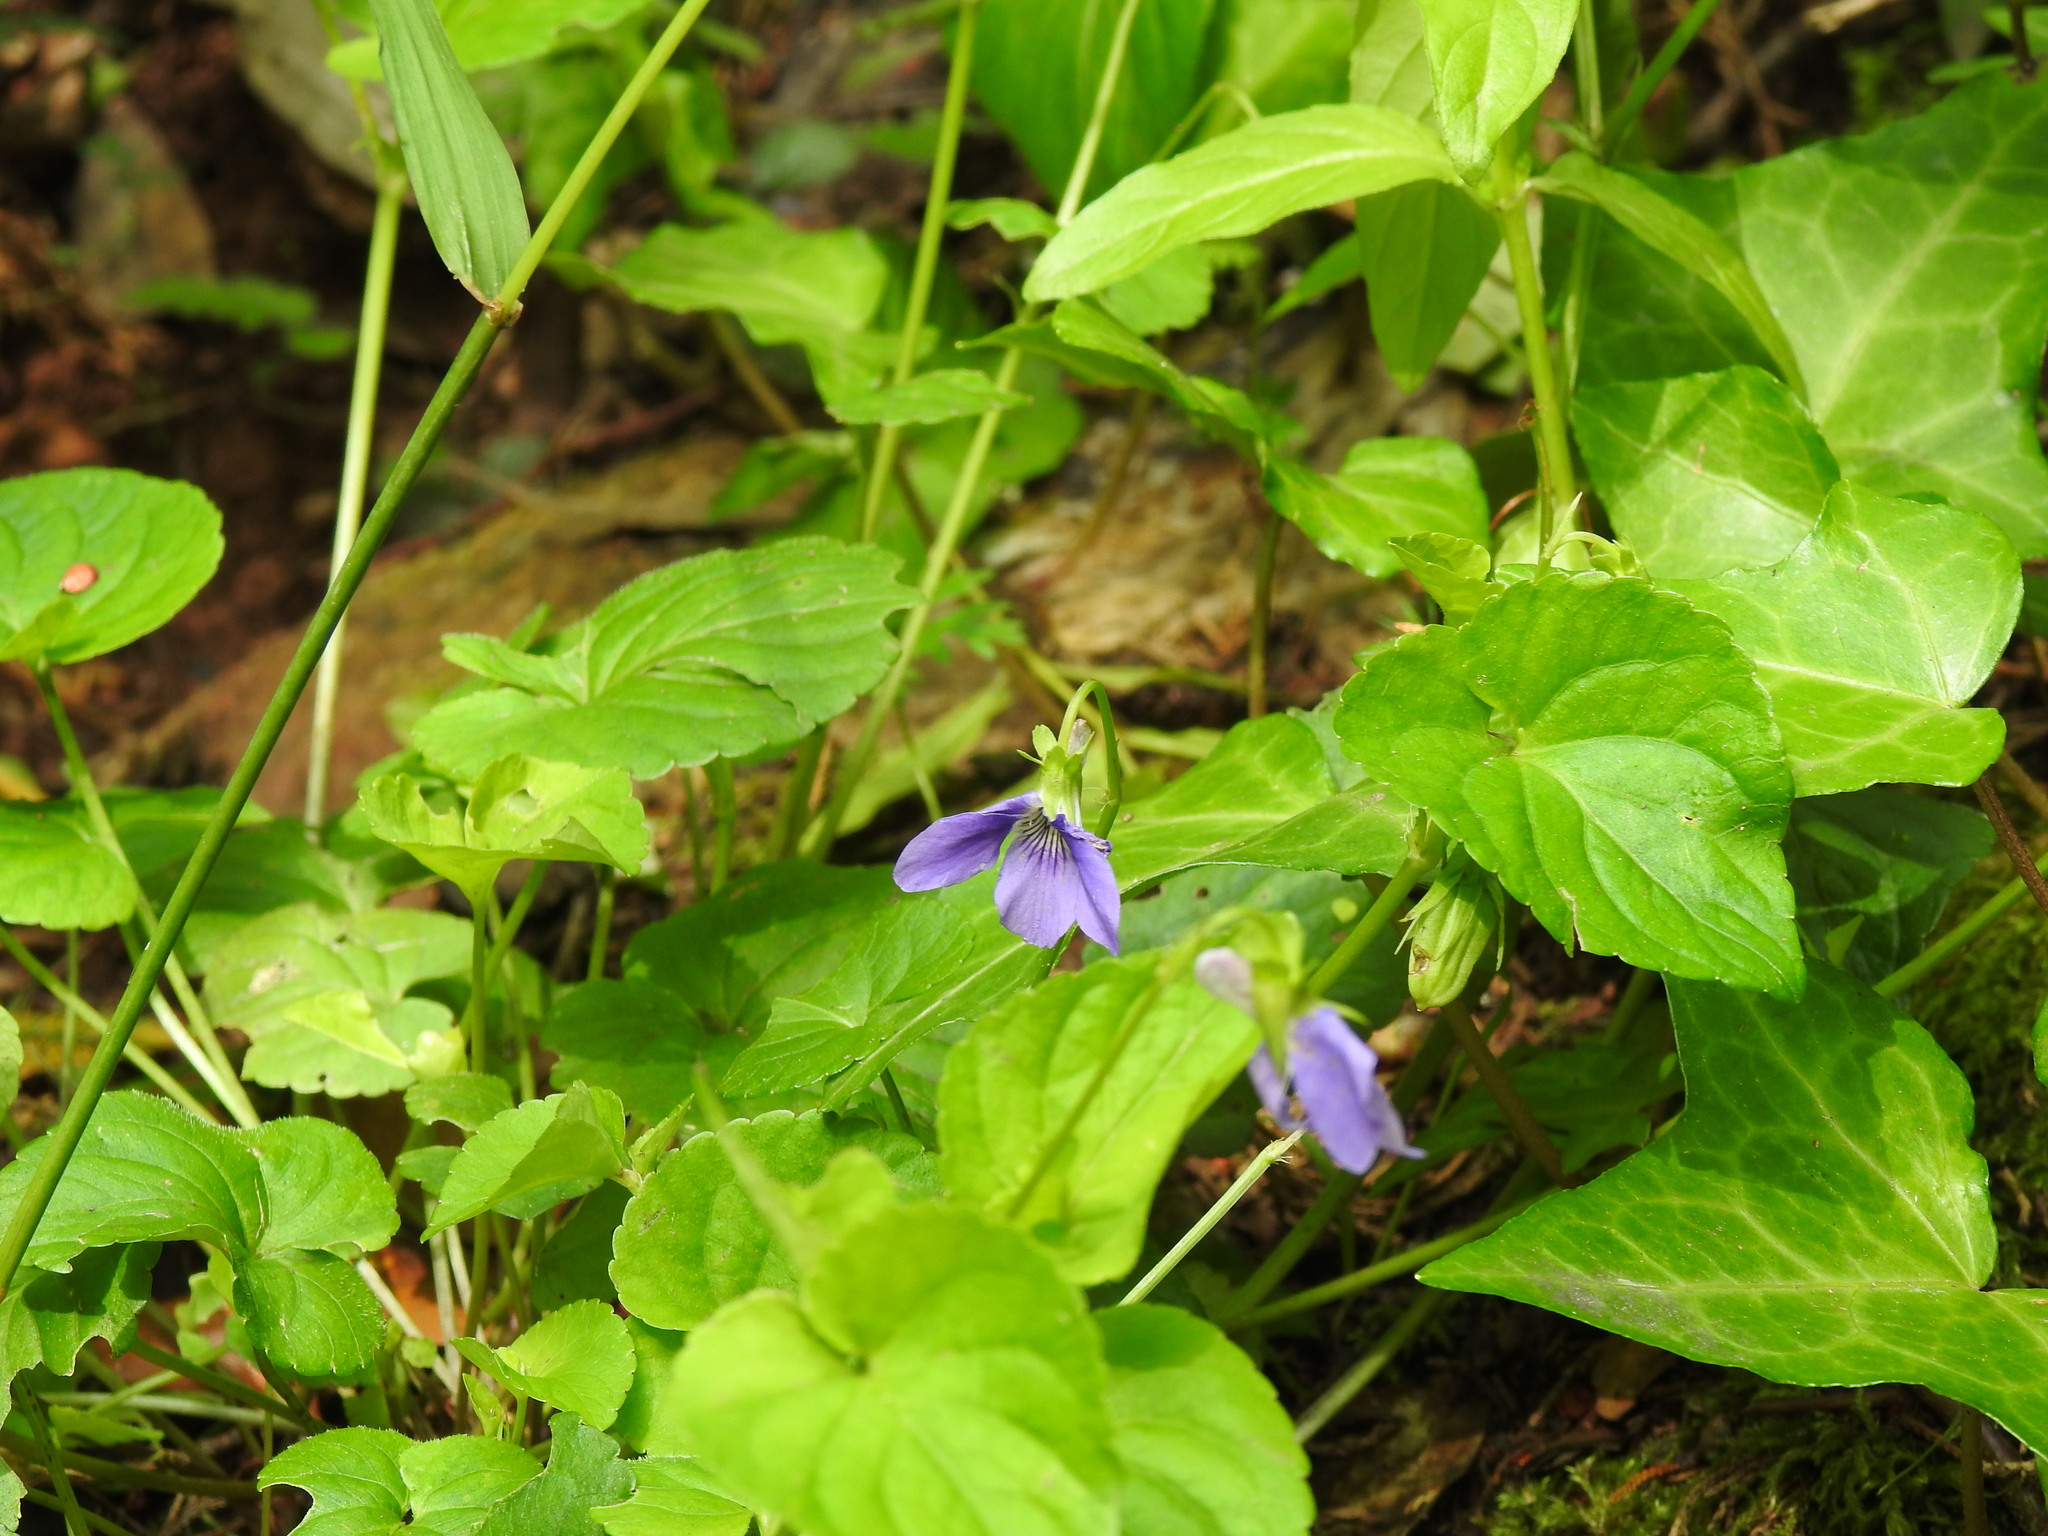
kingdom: Plantae
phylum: Tracheophyta
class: Magnoliopsida
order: Malpighiales
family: Violaceae
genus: Viola
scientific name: Viola riviniana
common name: Common dog-violet
